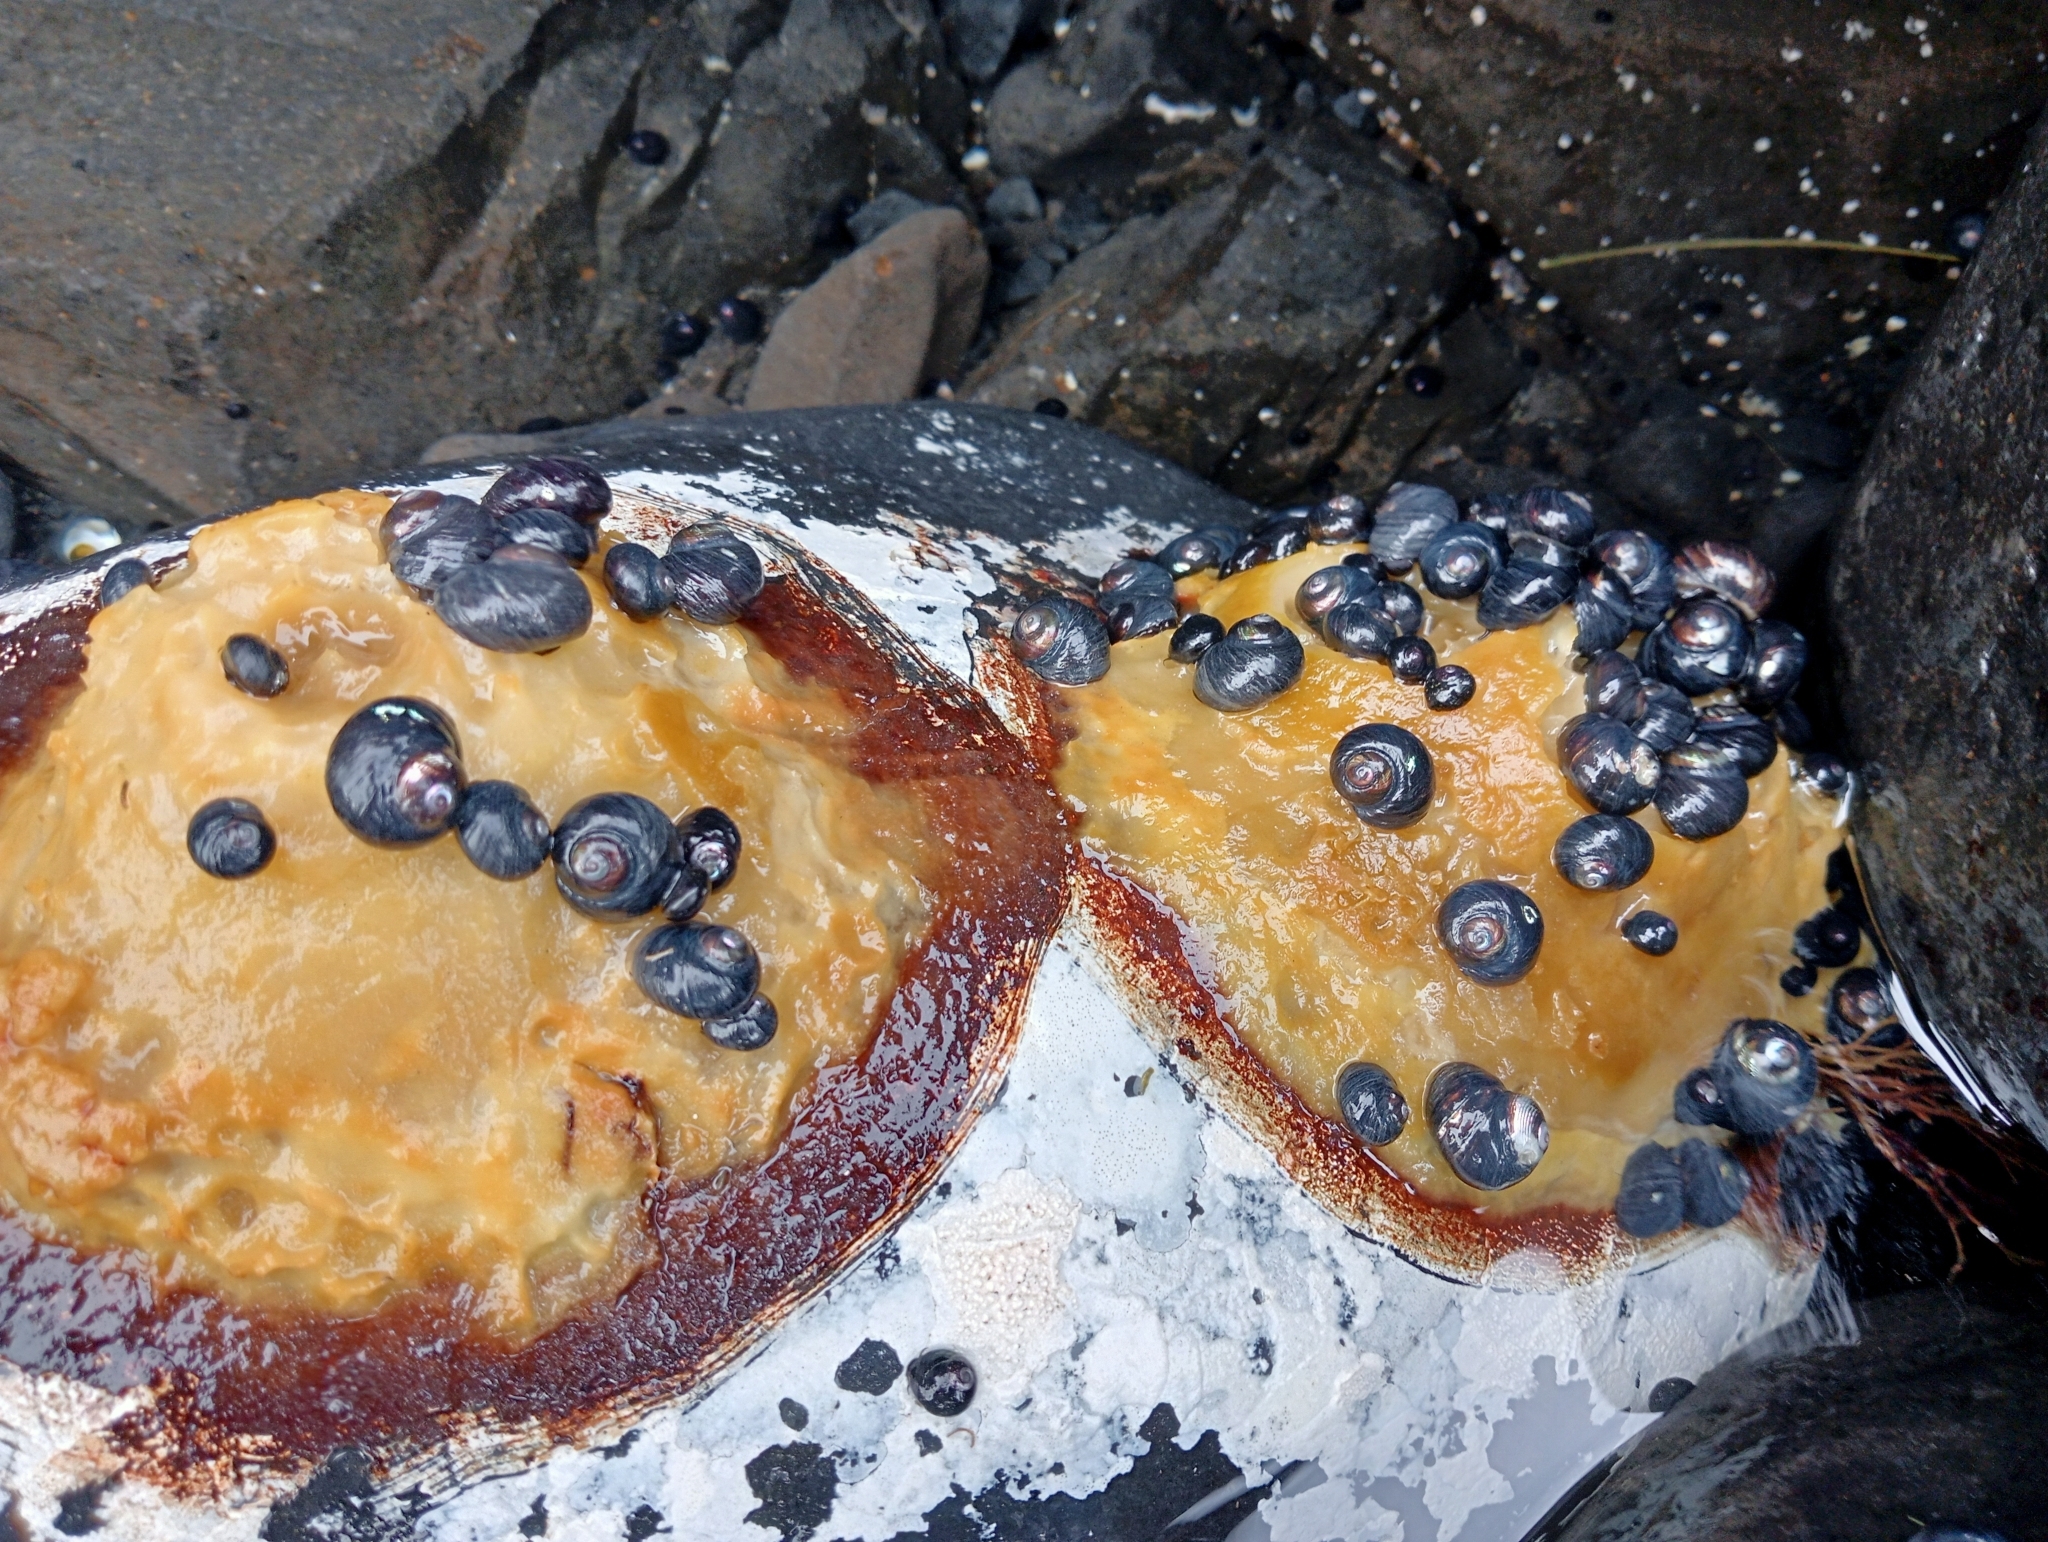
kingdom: Animalia
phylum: Mollusca
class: Gastropoda
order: Trochida
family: Trochidae
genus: Diloma
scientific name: Diloma nigerrimum
